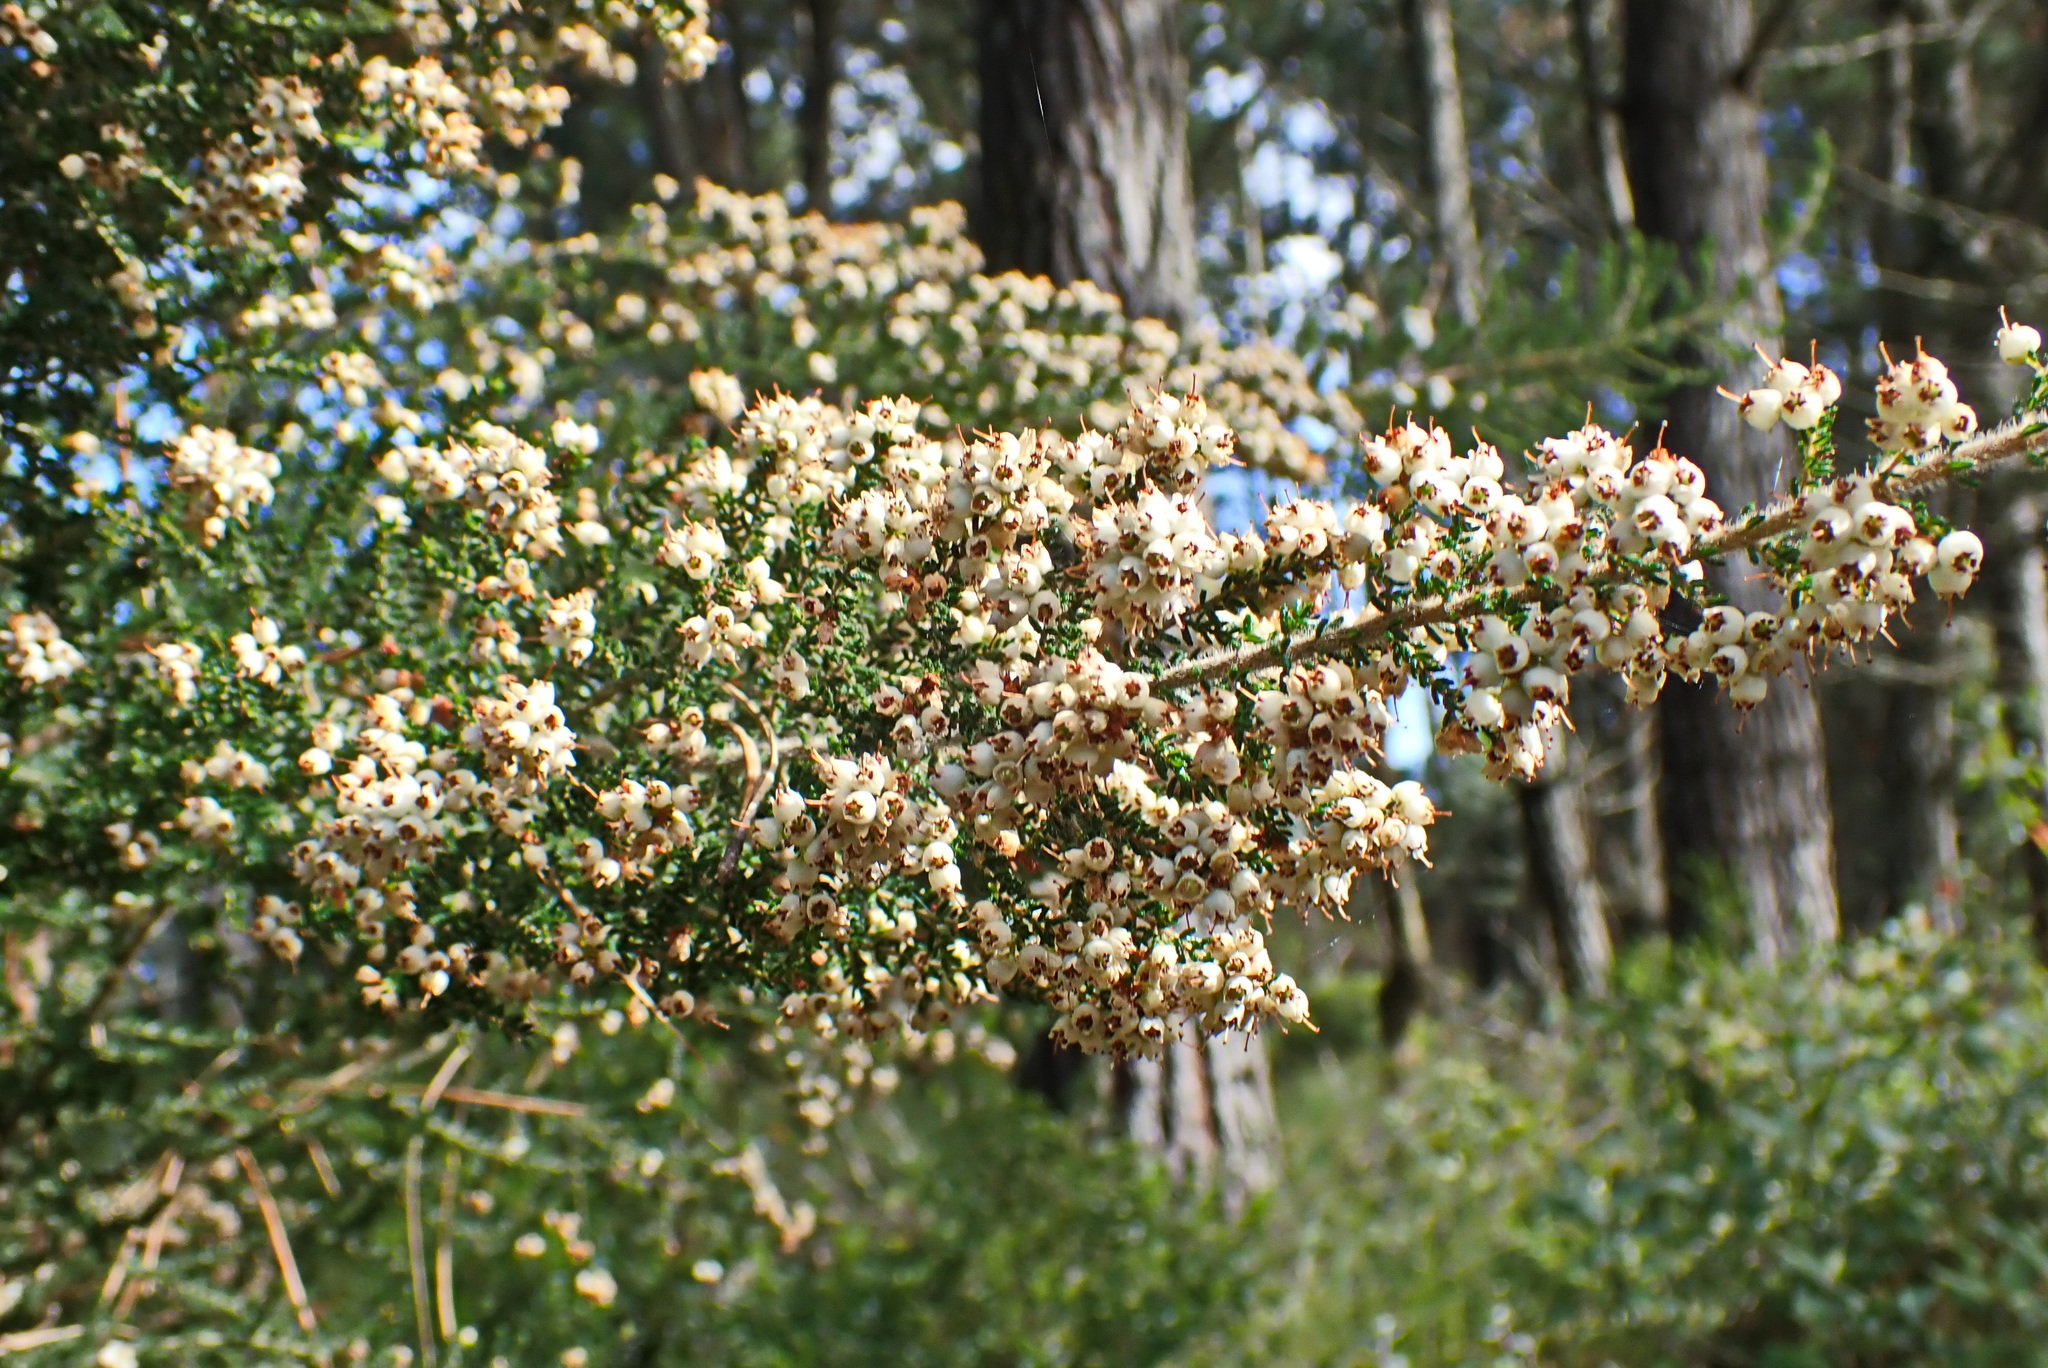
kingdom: Plantae
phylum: Tracheophyta
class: Magnoliopsida
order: Ericales
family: Ericaceae
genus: Erica
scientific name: Erica scabriuscula
